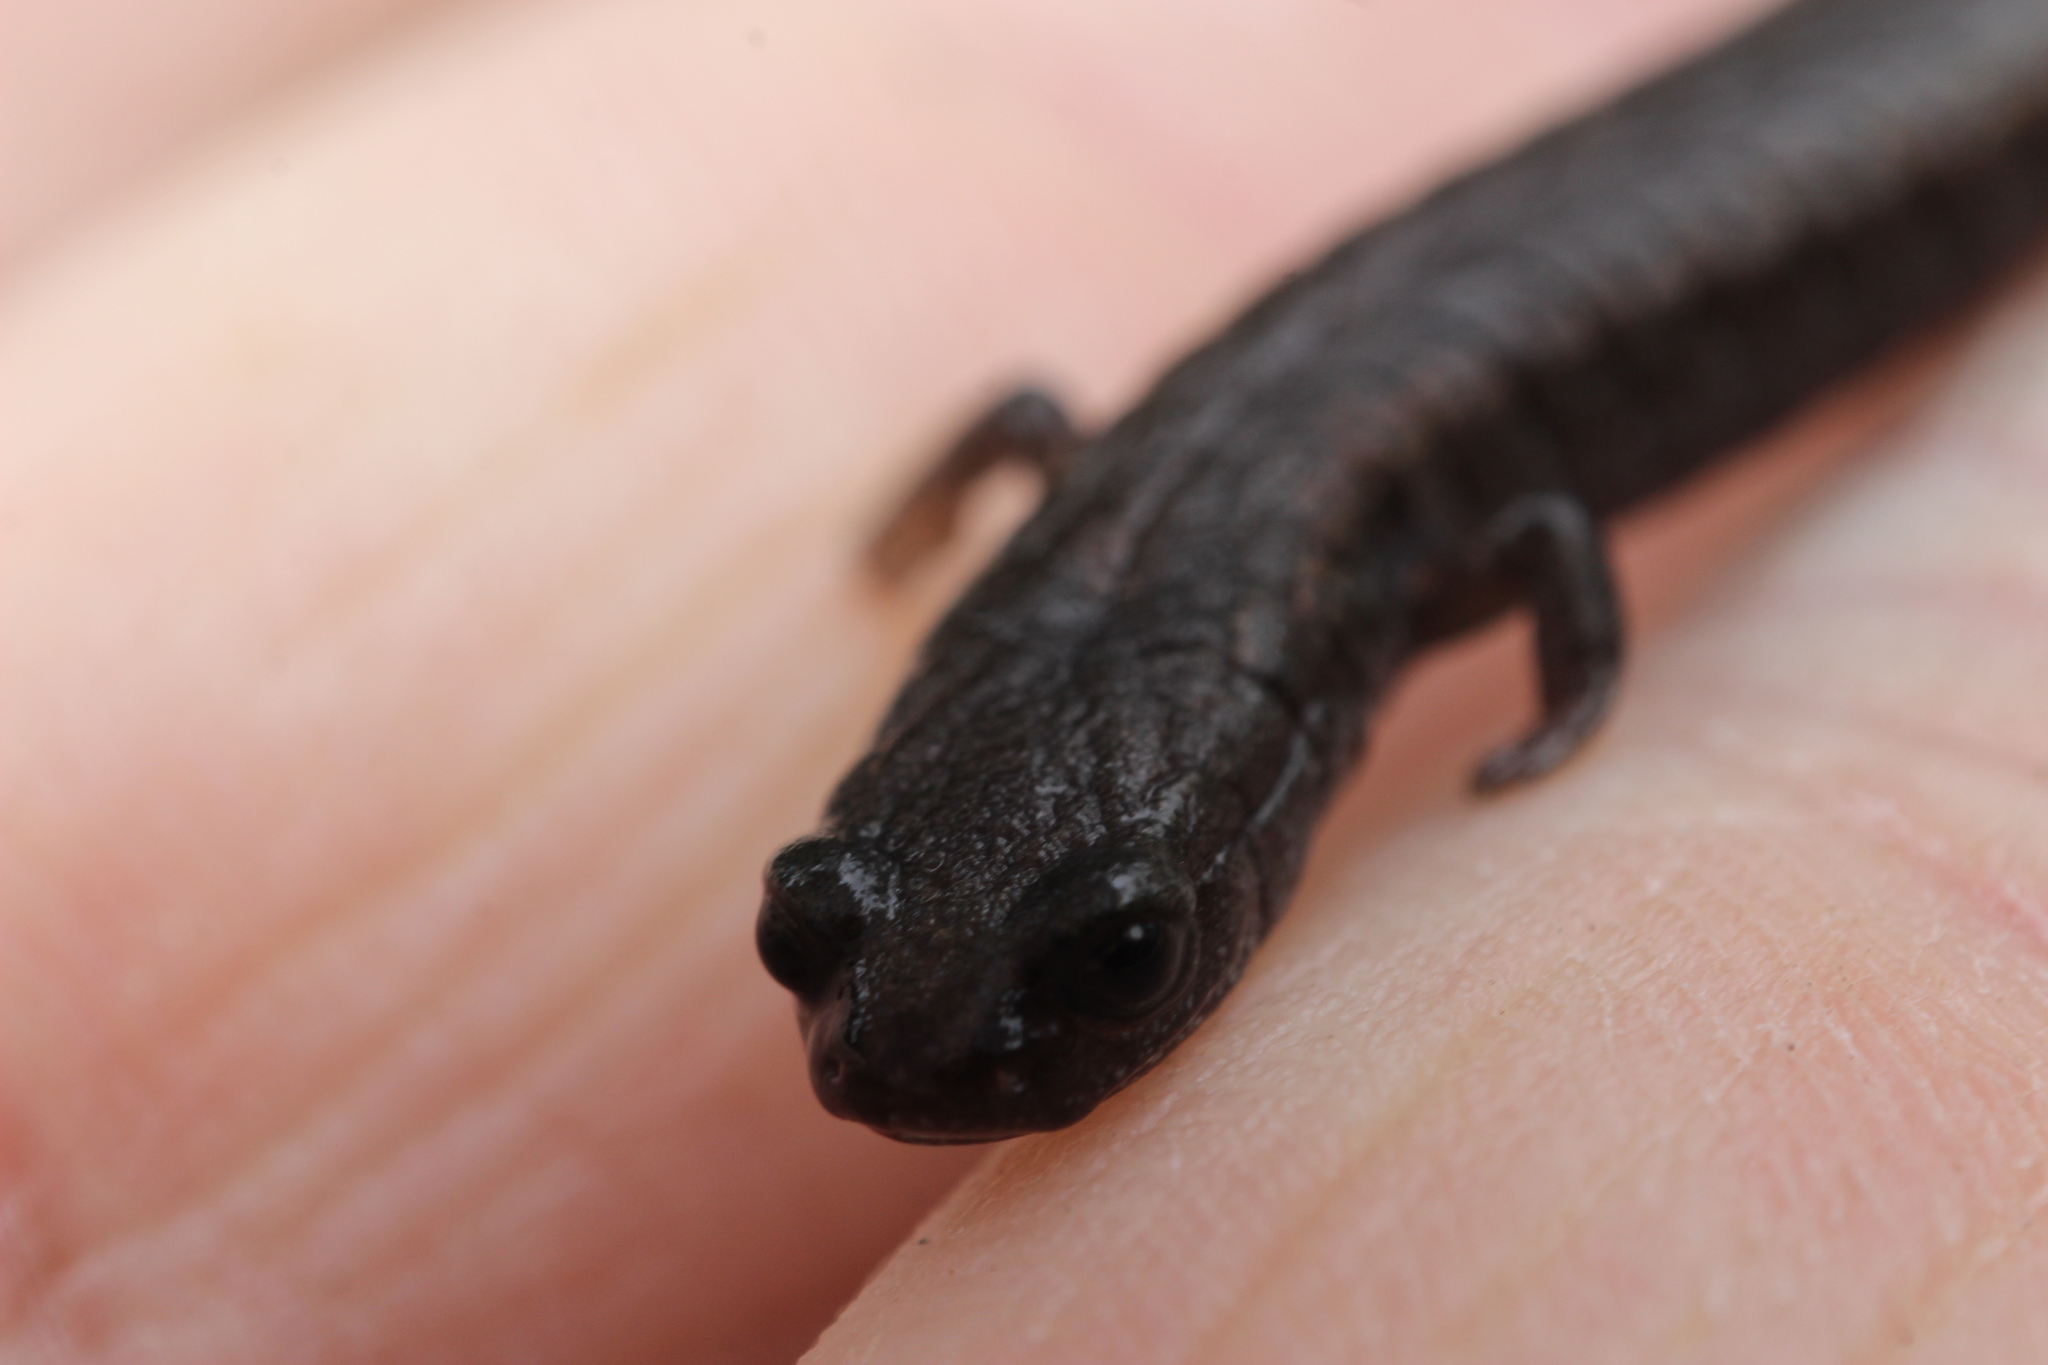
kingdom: Animalia
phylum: Chordata
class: Amphibia
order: Caudata
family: Plethodontidae
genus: Batrachoseps
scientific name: Batrachoseps attenuatus
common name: California slender salamander
